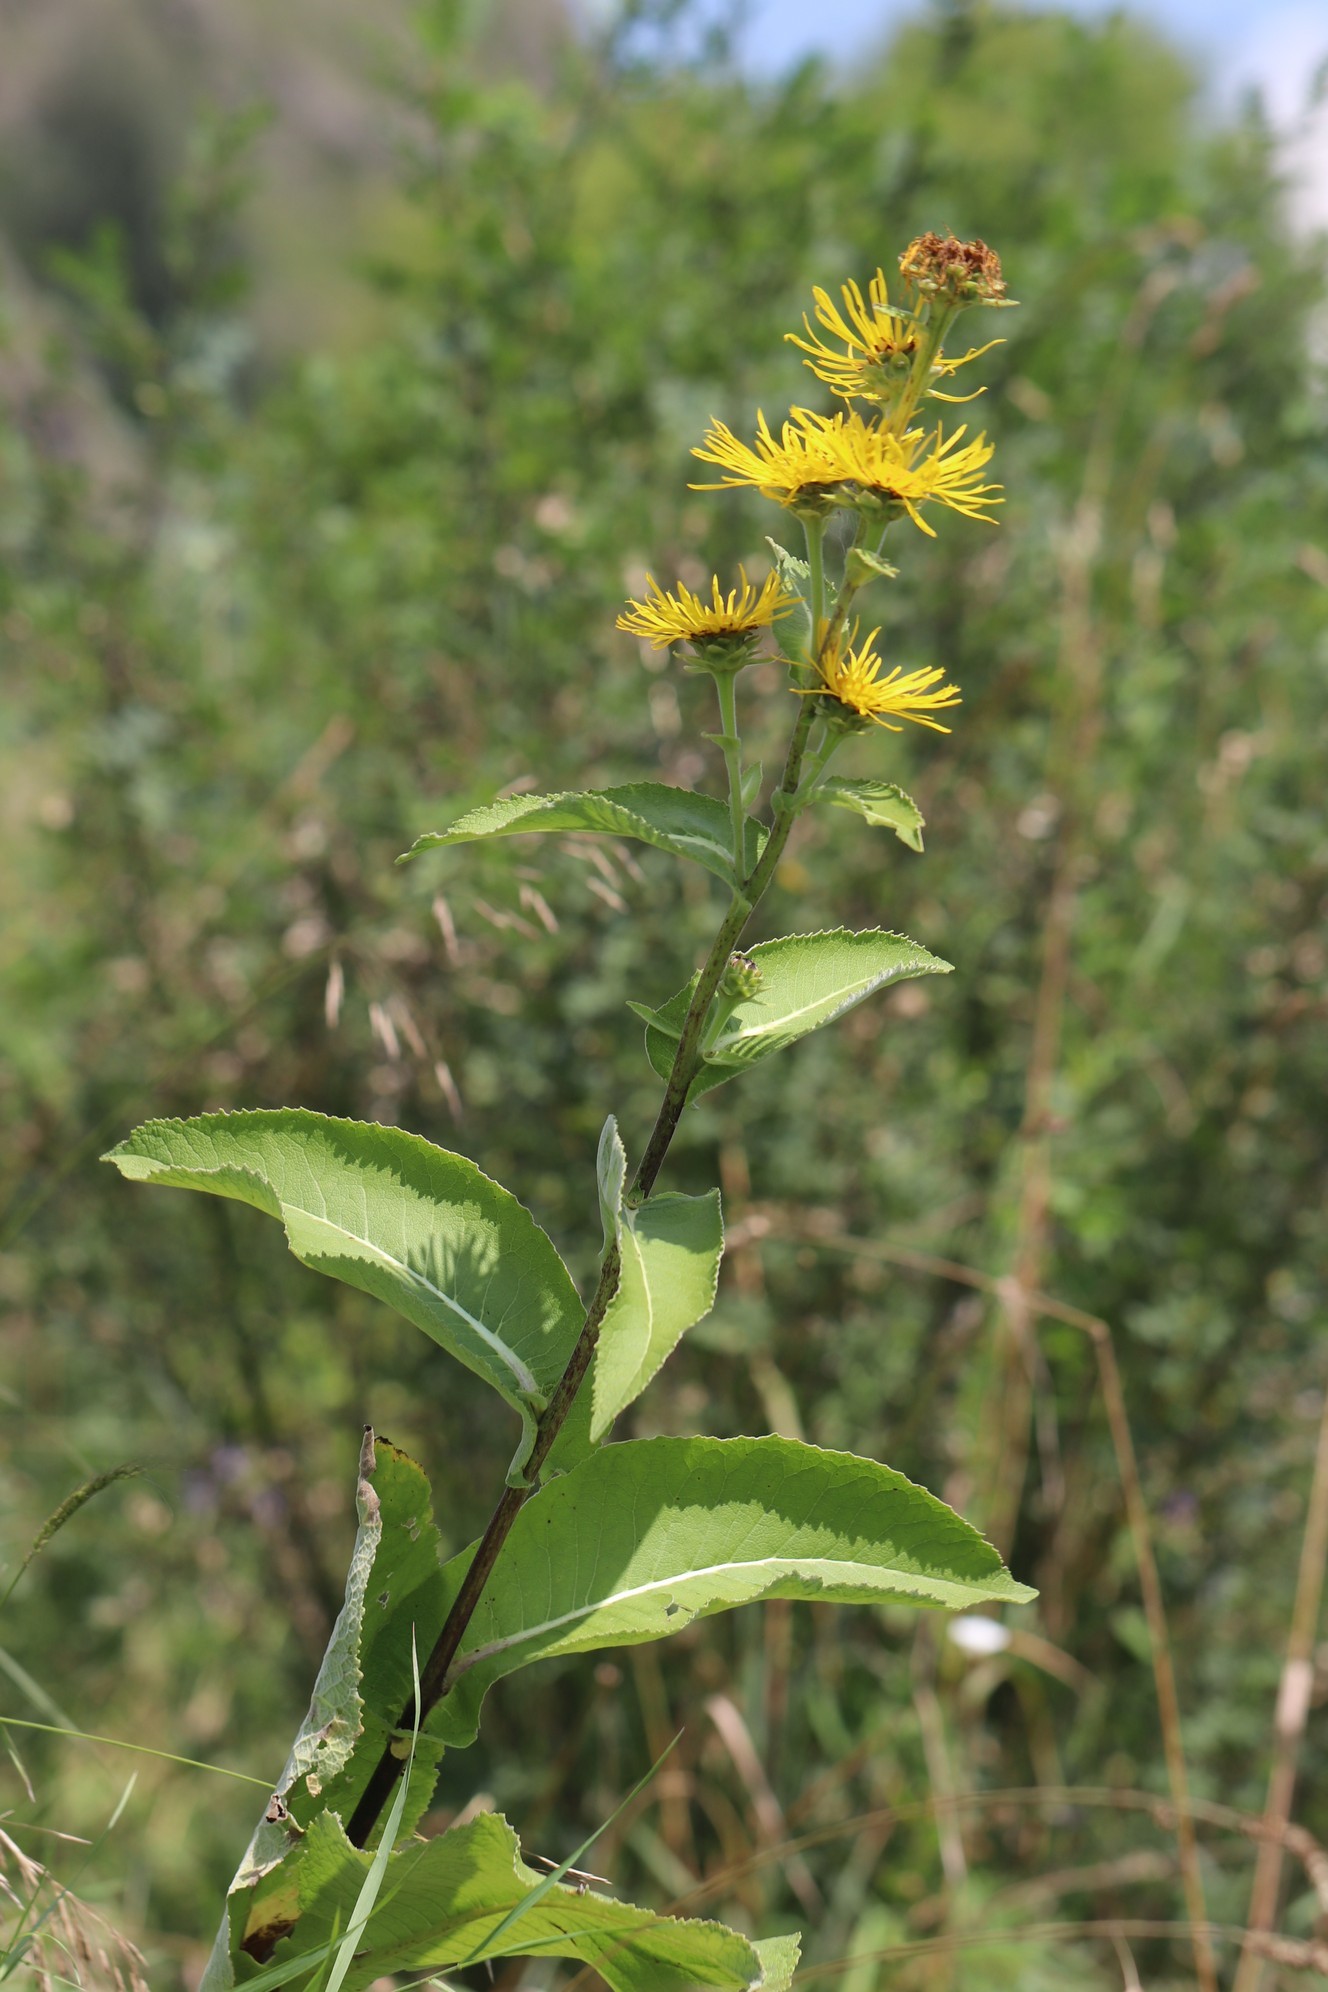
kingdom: Plantae
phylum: Tracheophyta
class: Magnoliopsida
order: Asterales
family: Asteraceae
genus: Inula
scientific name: Inula helenium
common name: Elecampane
